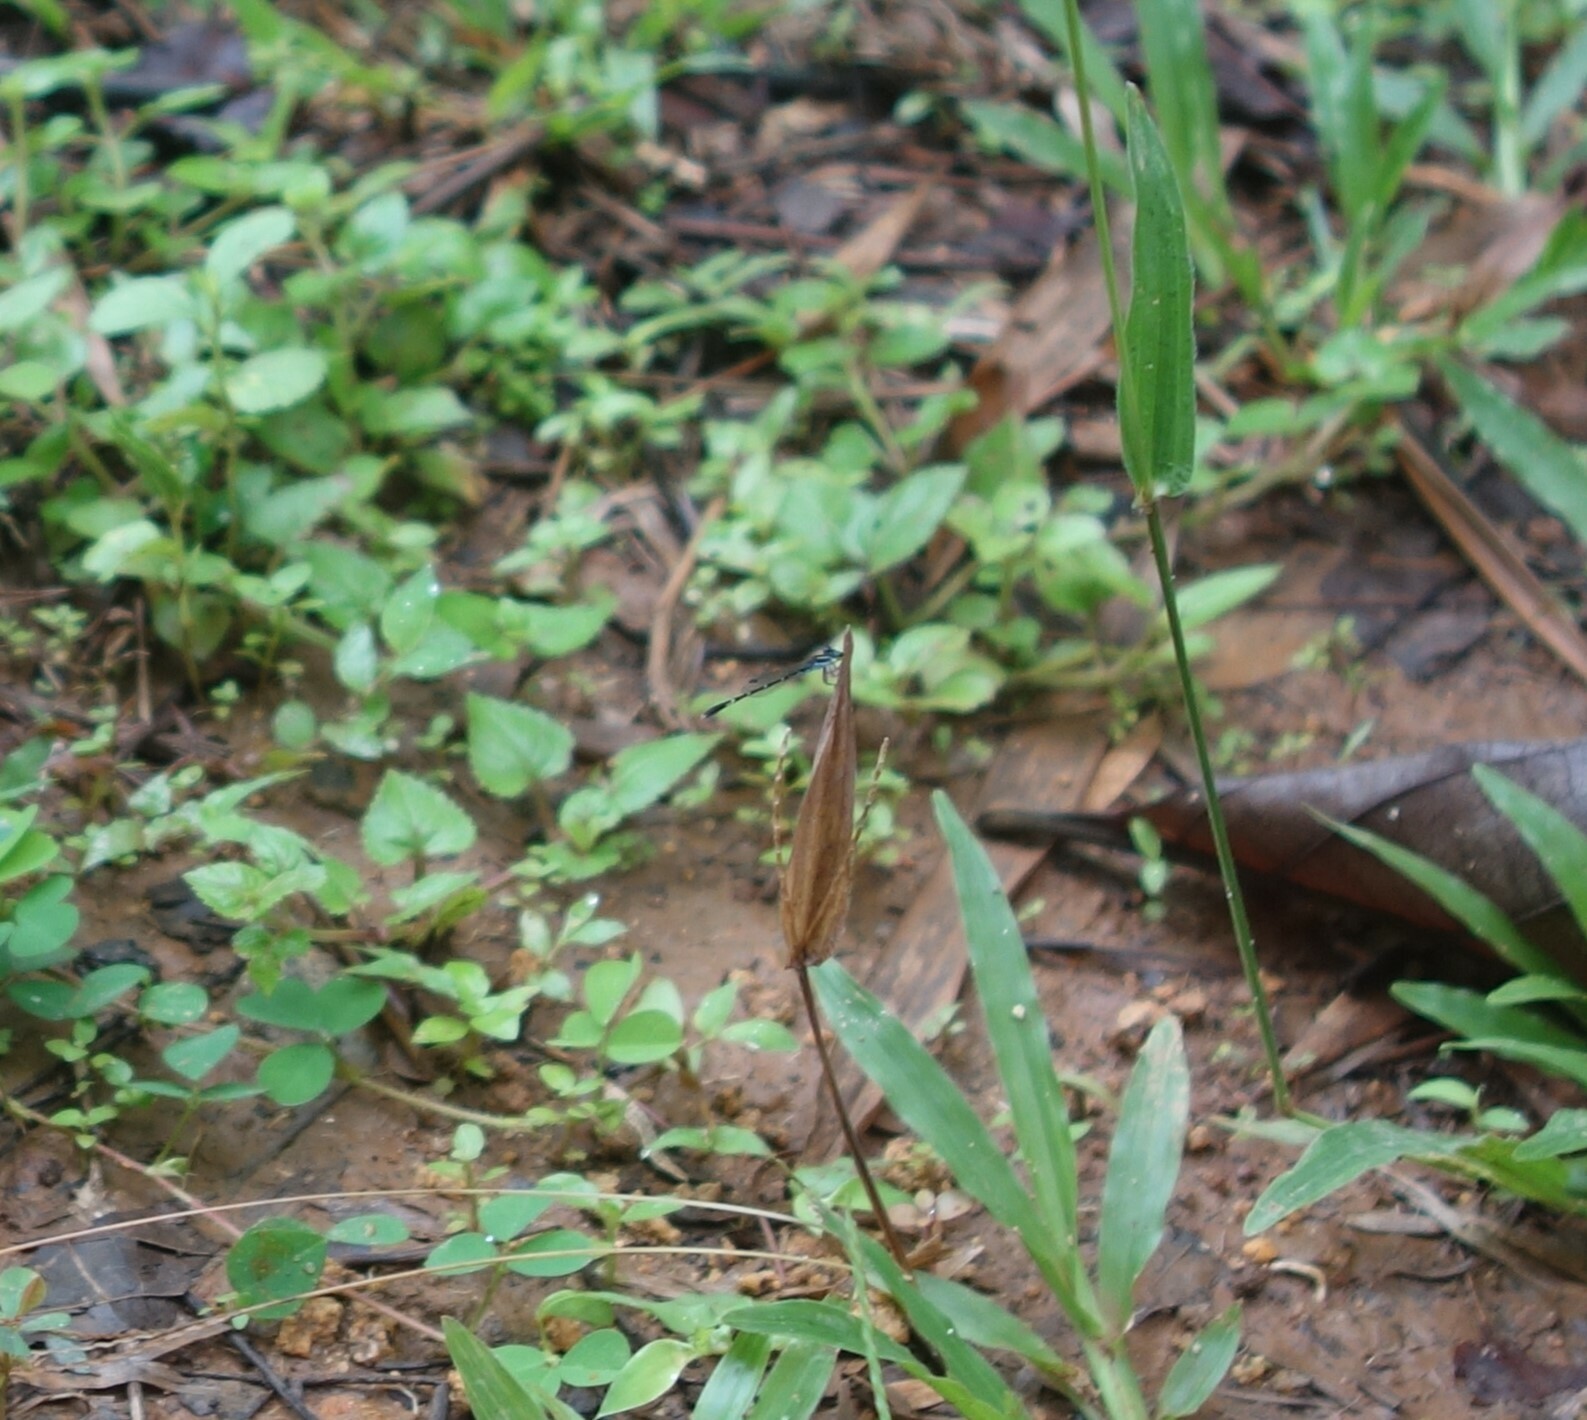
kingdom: Animalia
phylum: Arthropoda
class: Insecta
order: Odonata
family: Coenagrionidae
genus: Agriocnemis
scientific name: Agriocnemis splendidissima
